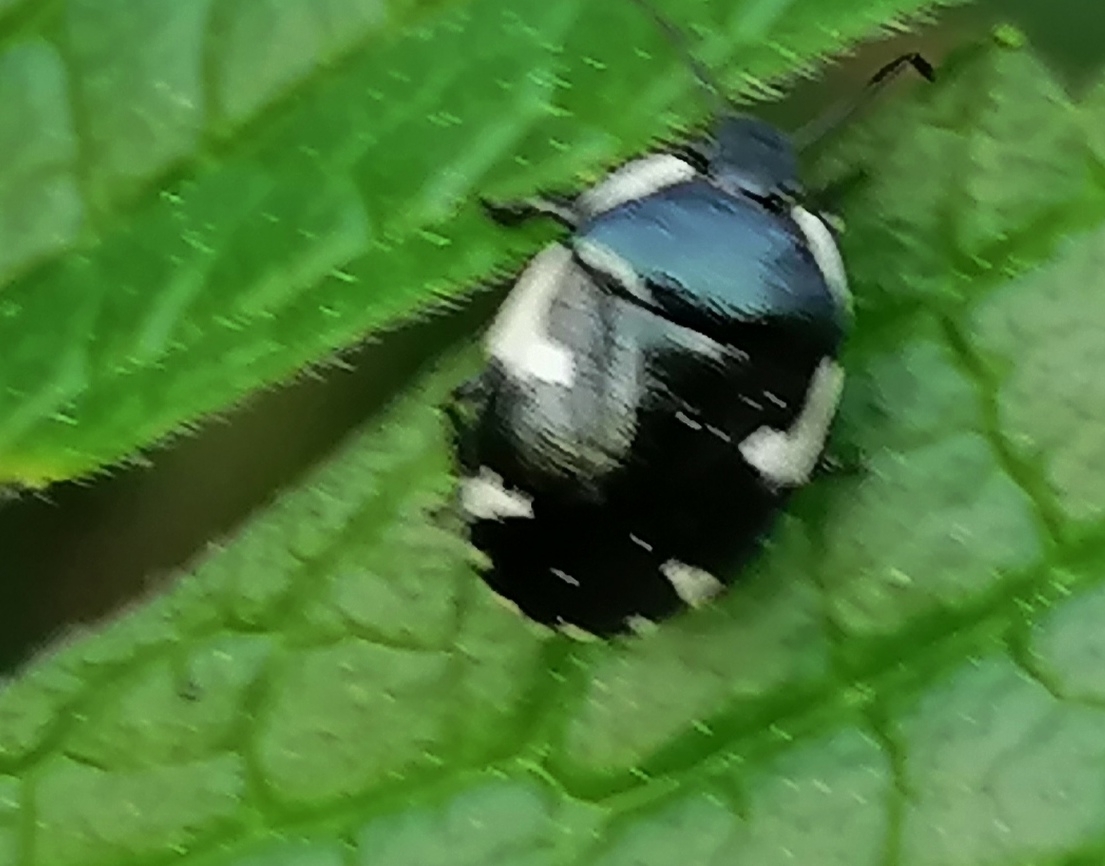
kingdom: Animalia
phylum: Arthropoda
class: Insecta
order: Hemiptera
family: Cydnidae
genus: Tritomegas
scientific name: Tritomegas sexmaculatus
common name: Rambur's pied shieldbug
